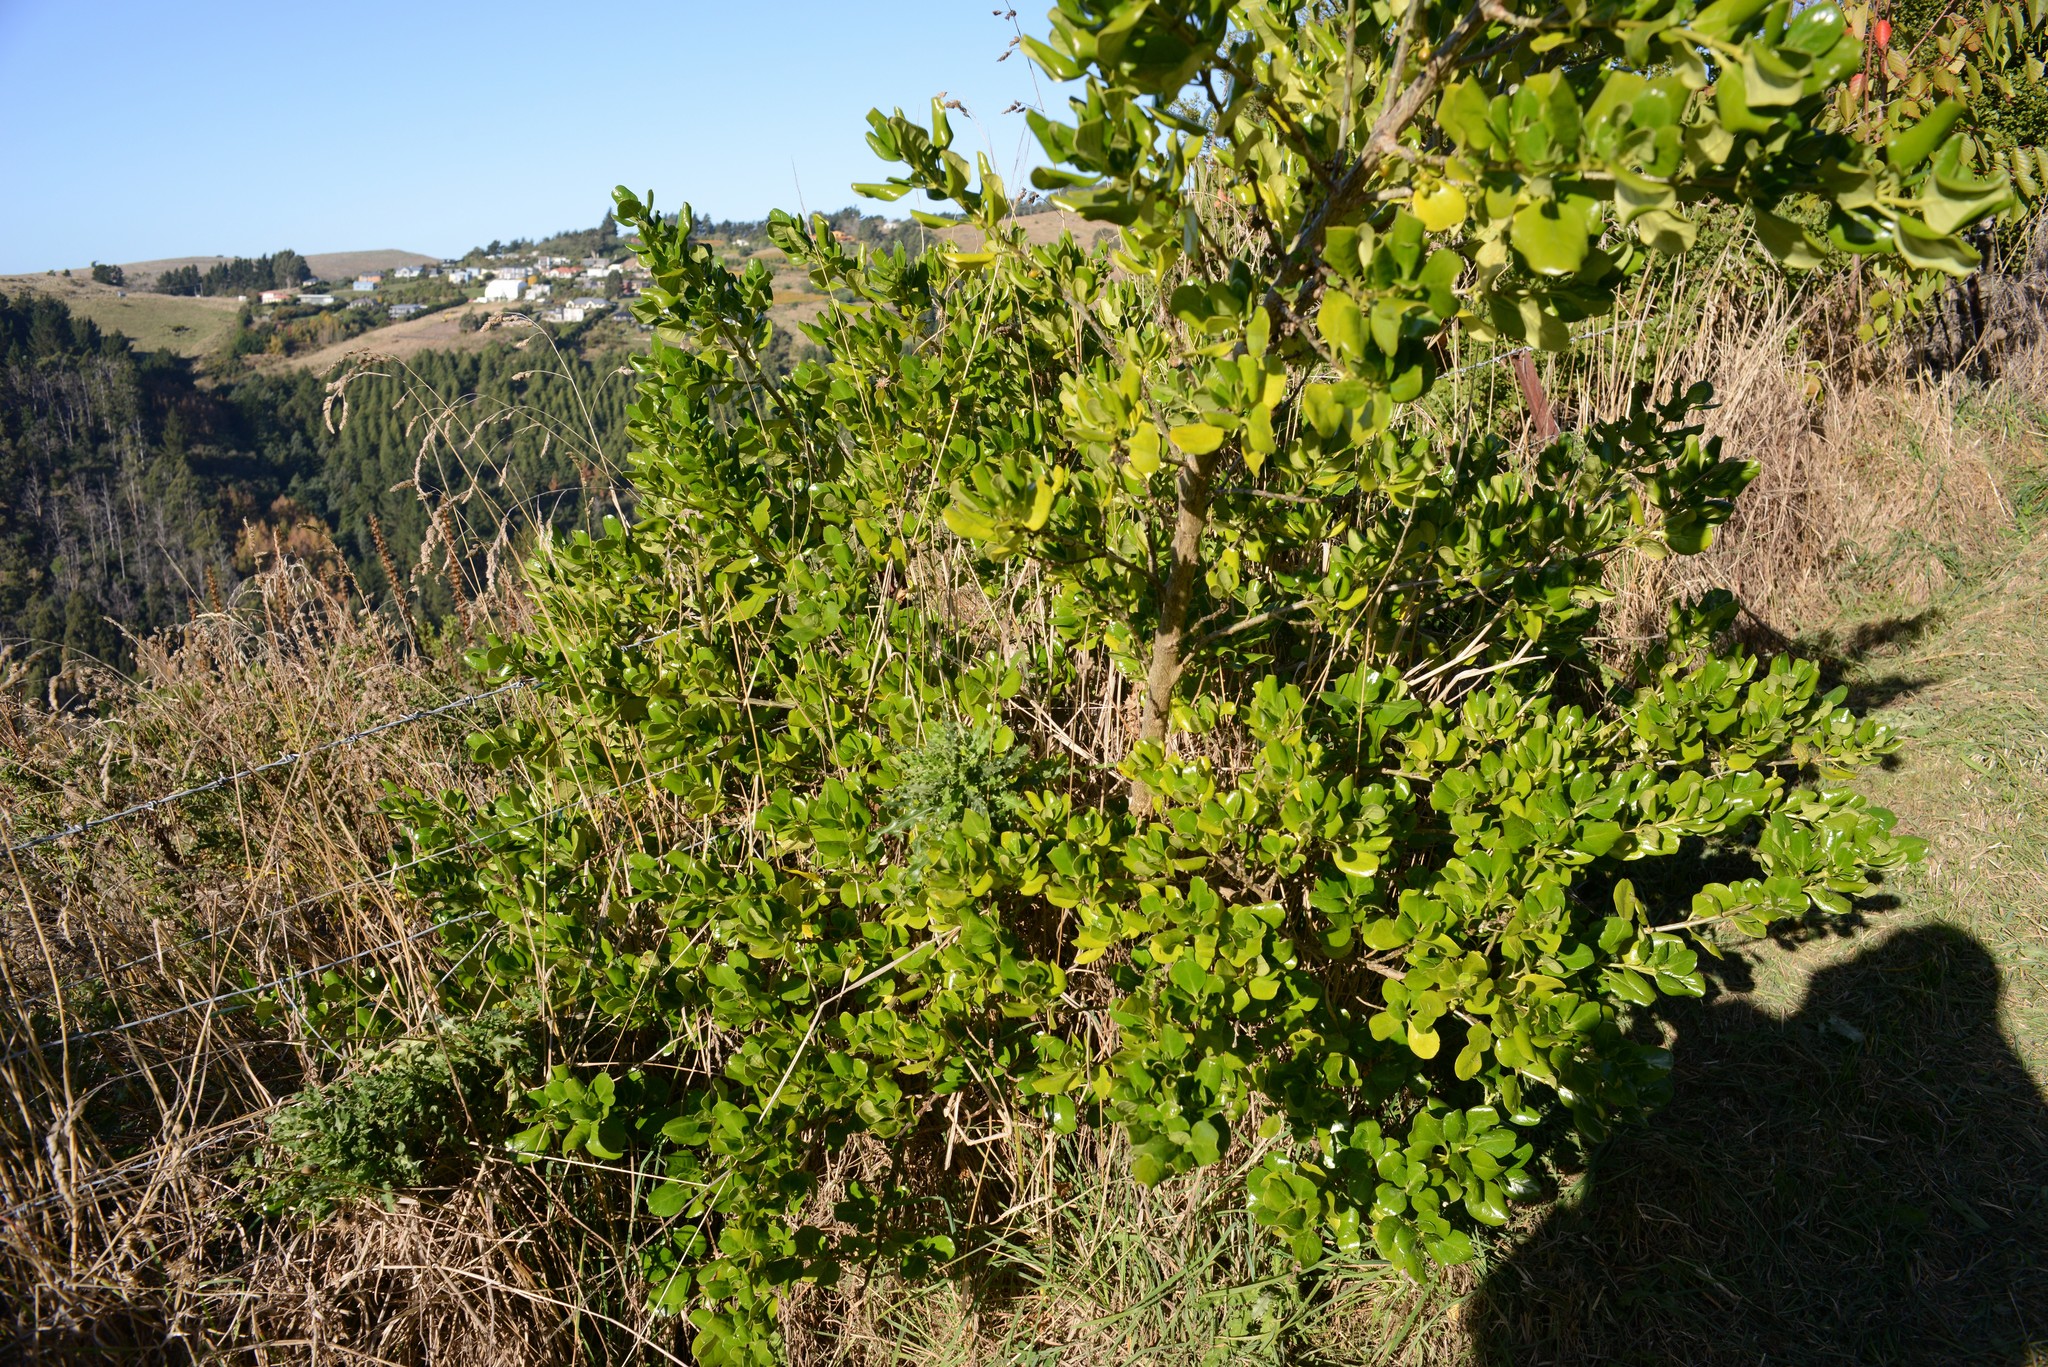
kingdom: Plantae
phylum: Tracheophyta
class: Magnoliopsida
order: Gentianales
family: Rubiaceae
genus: Coprosma
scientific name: Coprosma repens
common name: Tree bedstraw
